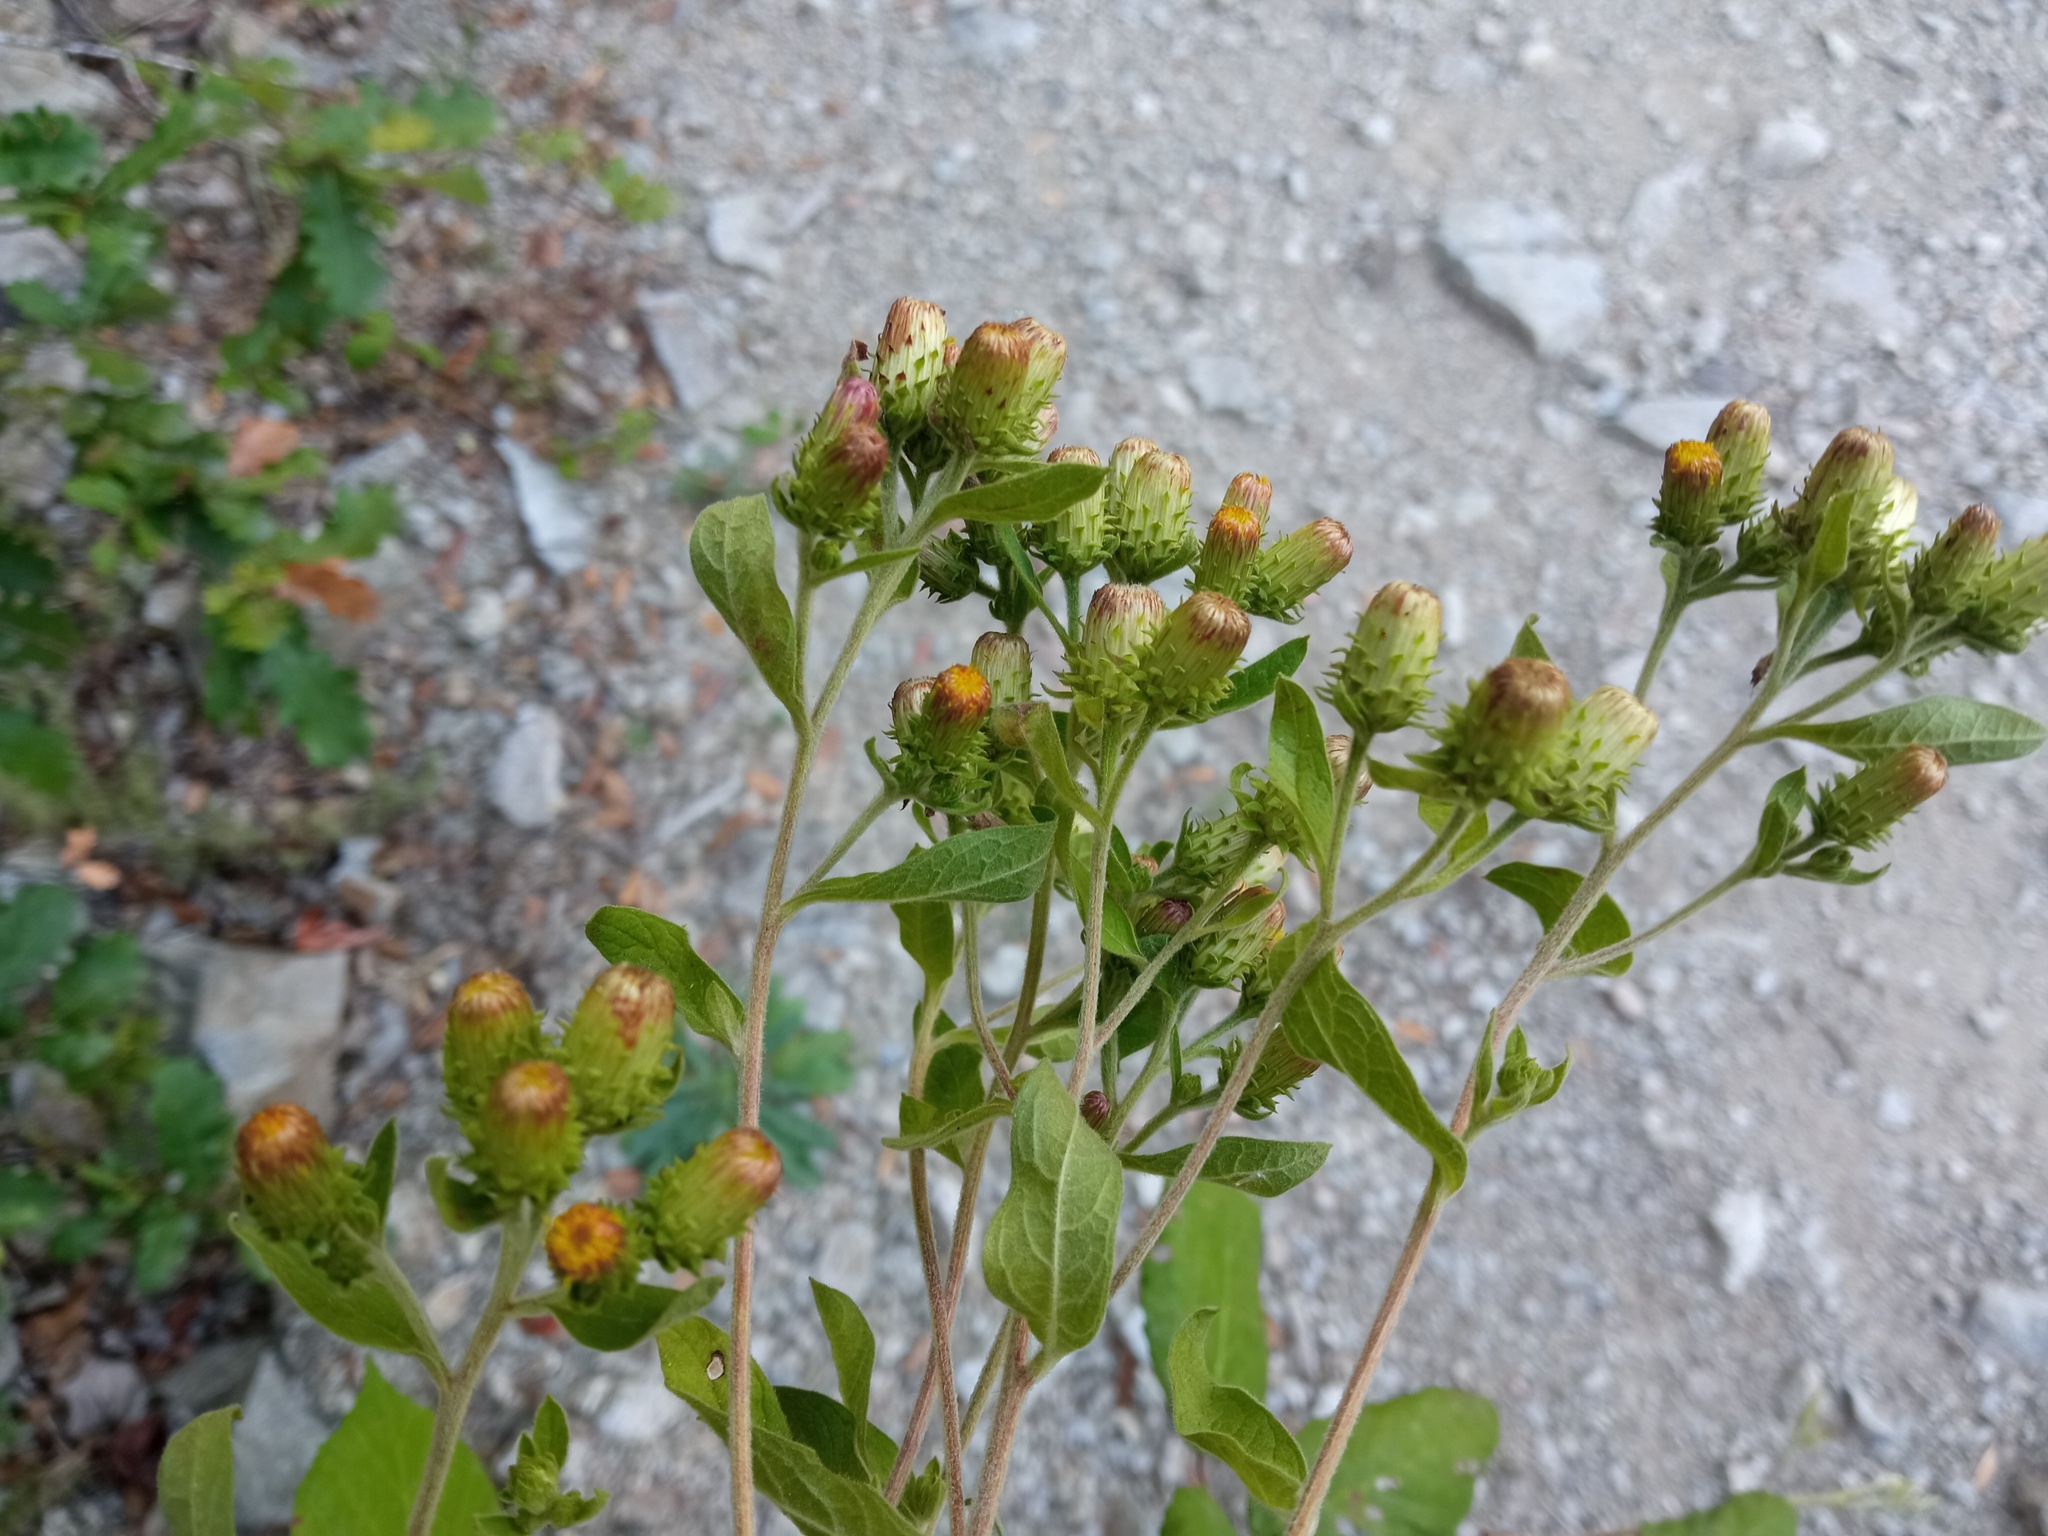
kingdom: Plantae
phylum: Tracheophyta
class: Magnoliopsida
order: Asterales
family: Asteraceae
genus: Pentanema
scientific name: Pentanema squarrosum
